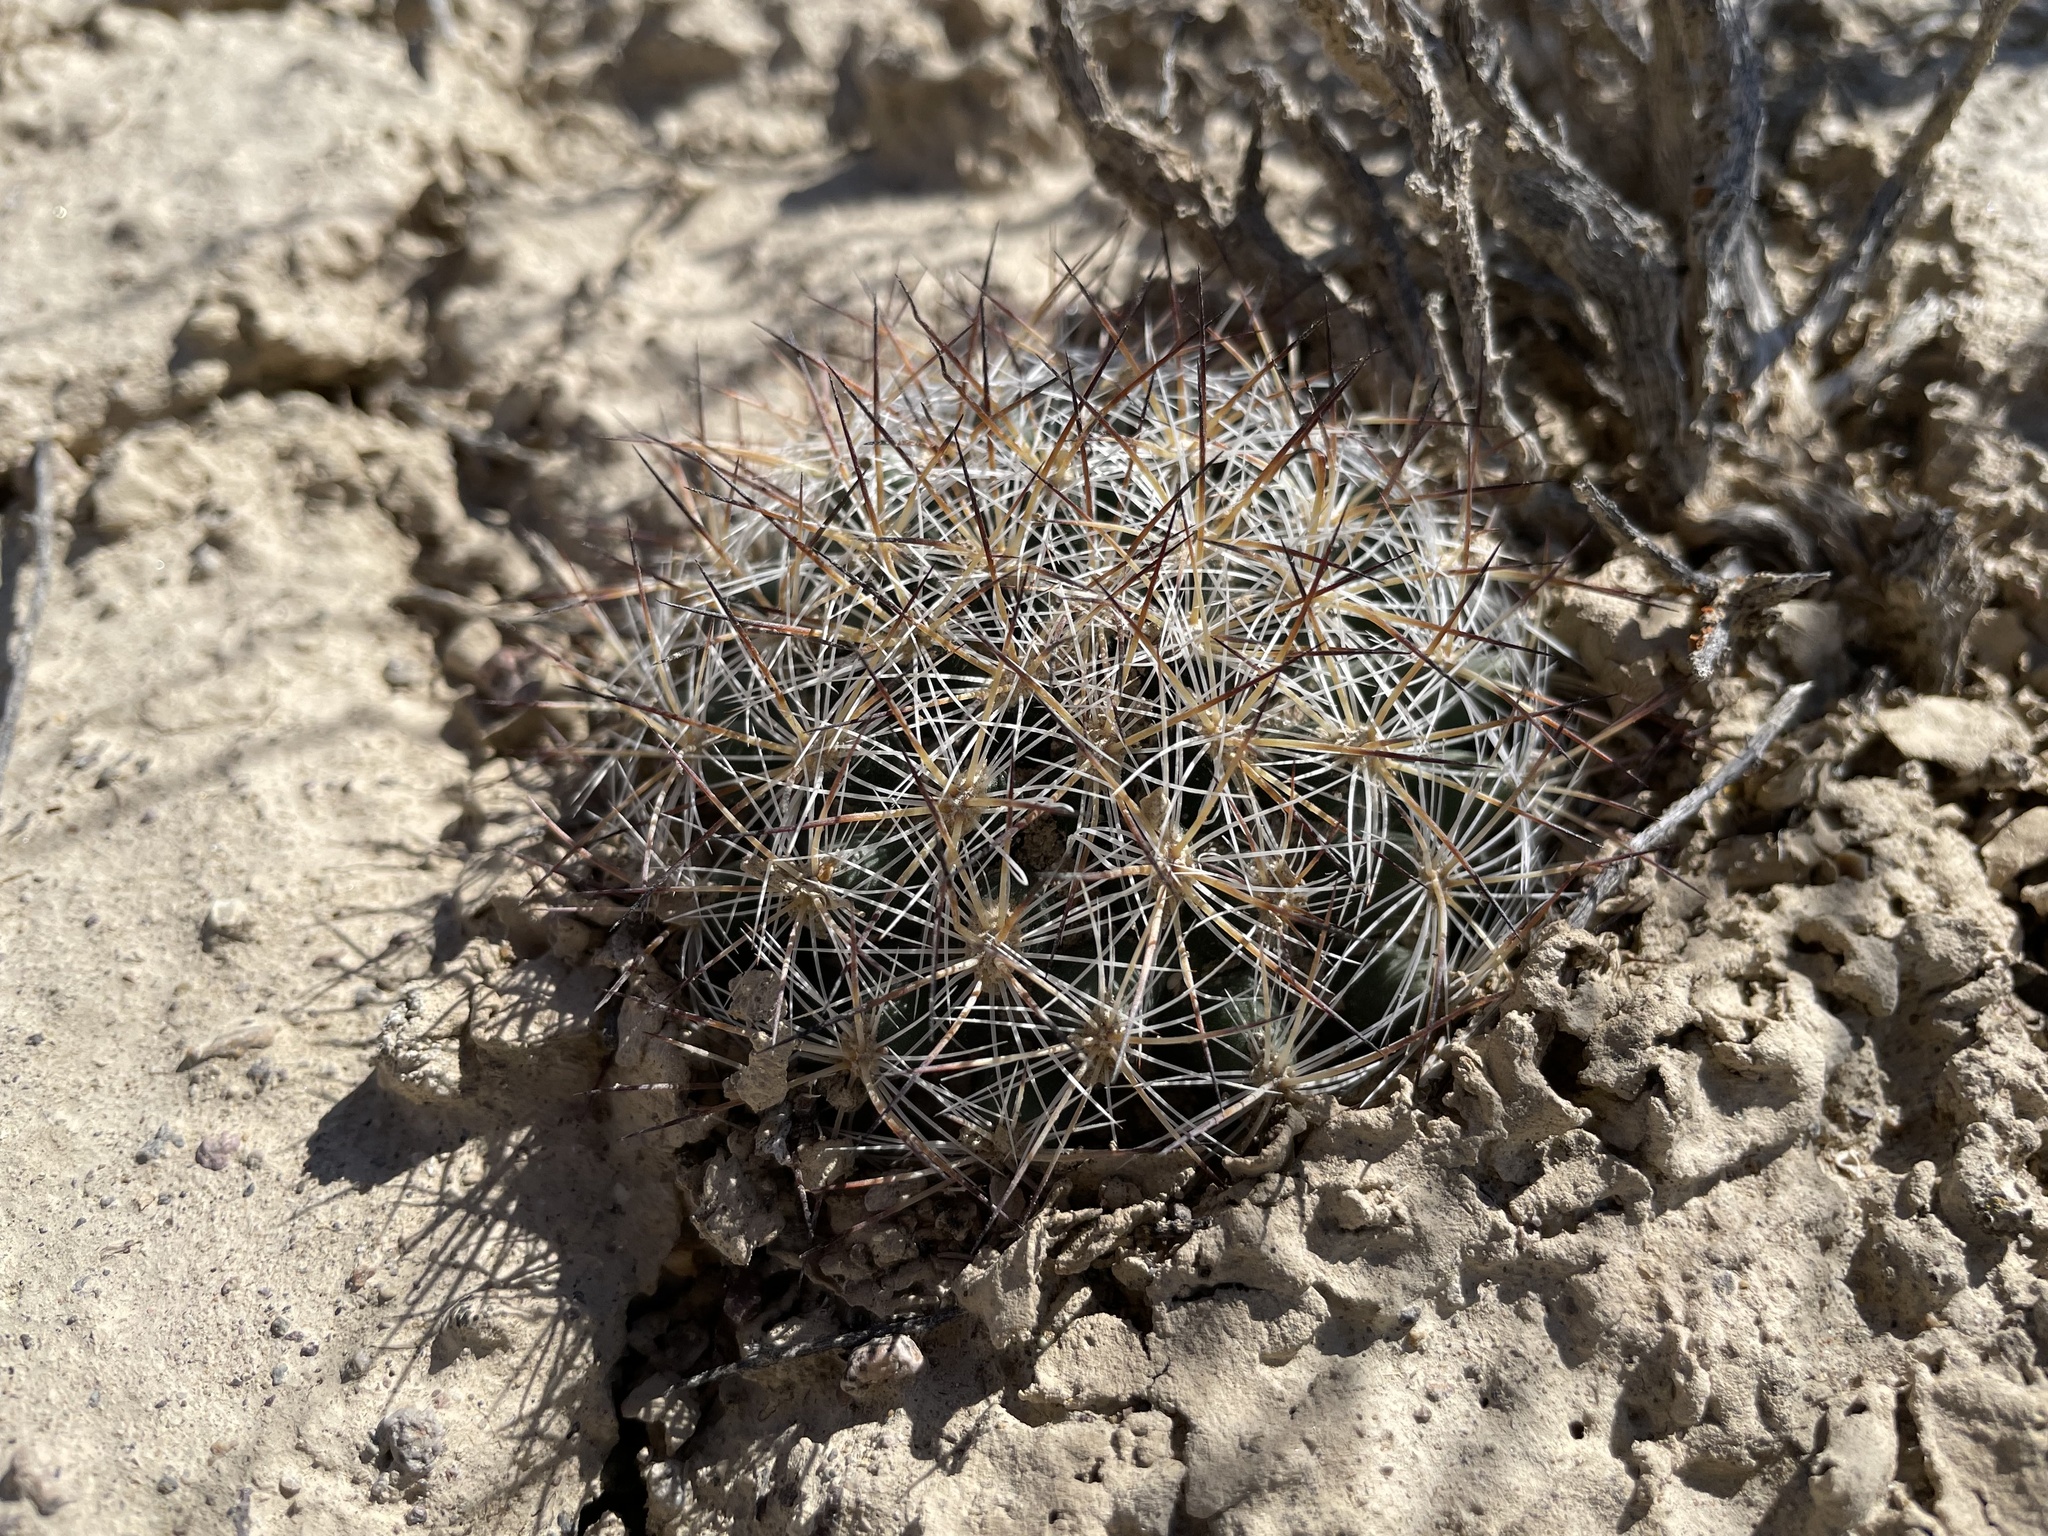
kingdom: Plantae
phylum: Tracheophyta
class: Magnoliopsida
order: Caryophyllales
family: Cactaceae
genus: Pediocactus
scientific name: Pediocactus simpsonii
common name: Simpson's hedgehog cactus
